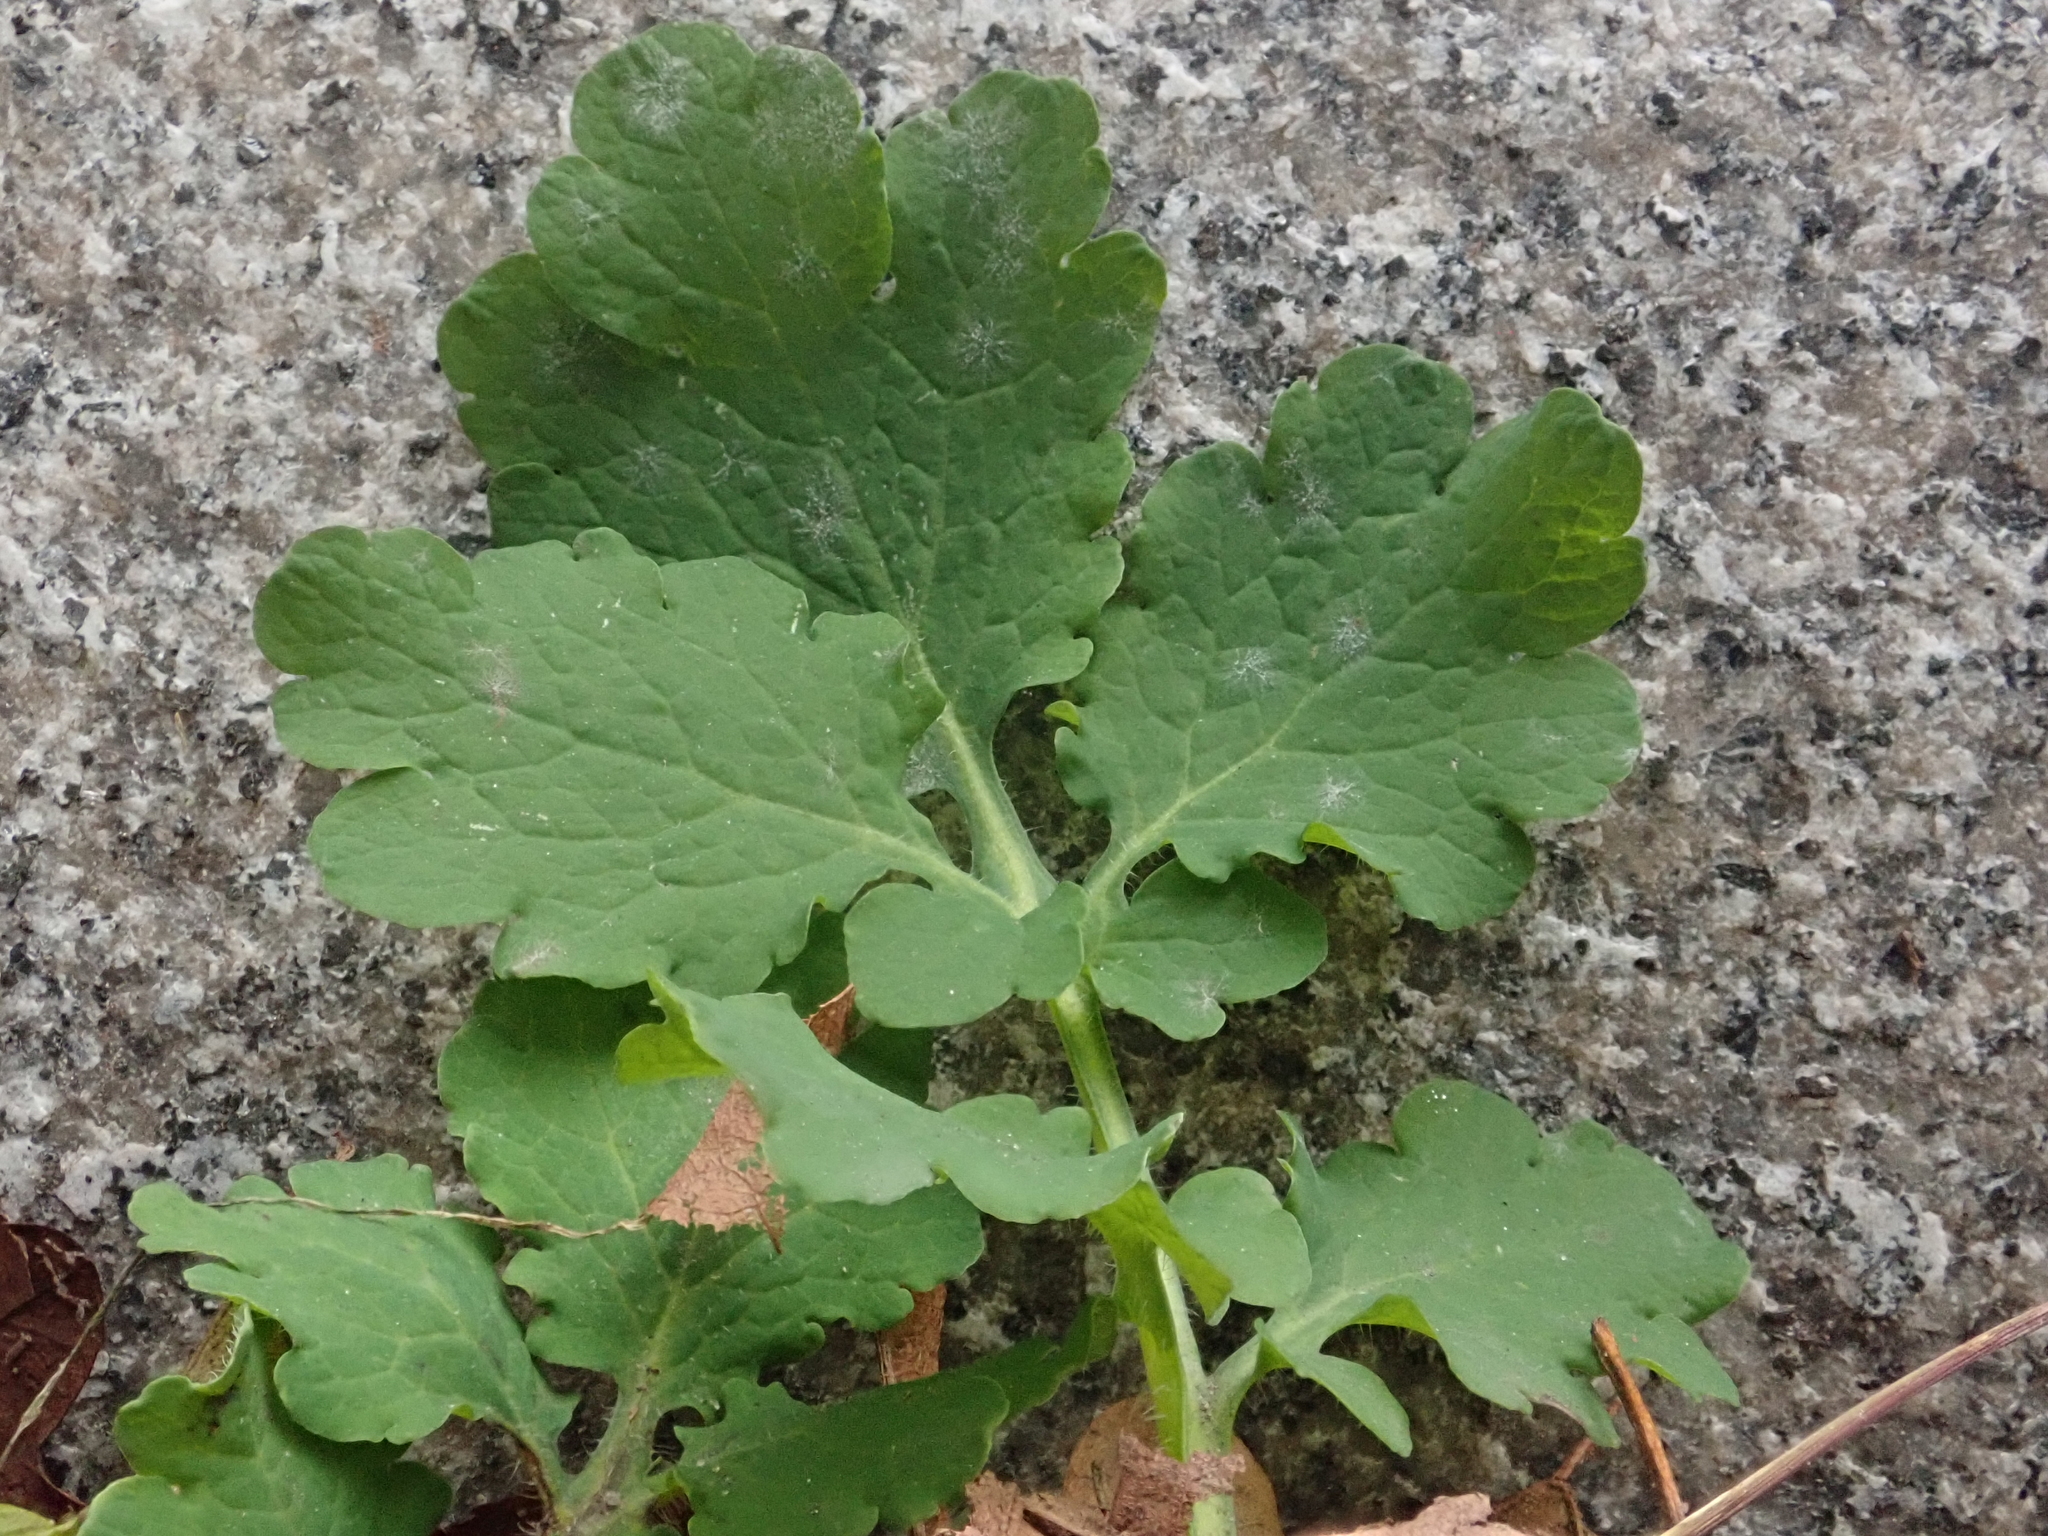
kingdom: Plantae
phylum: Tracheophyta
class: Magnoliopsida
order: Ranunculales
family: Papaveraceae
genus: Chelidonium
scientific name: Chelidonium majus
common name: Greater celandine
